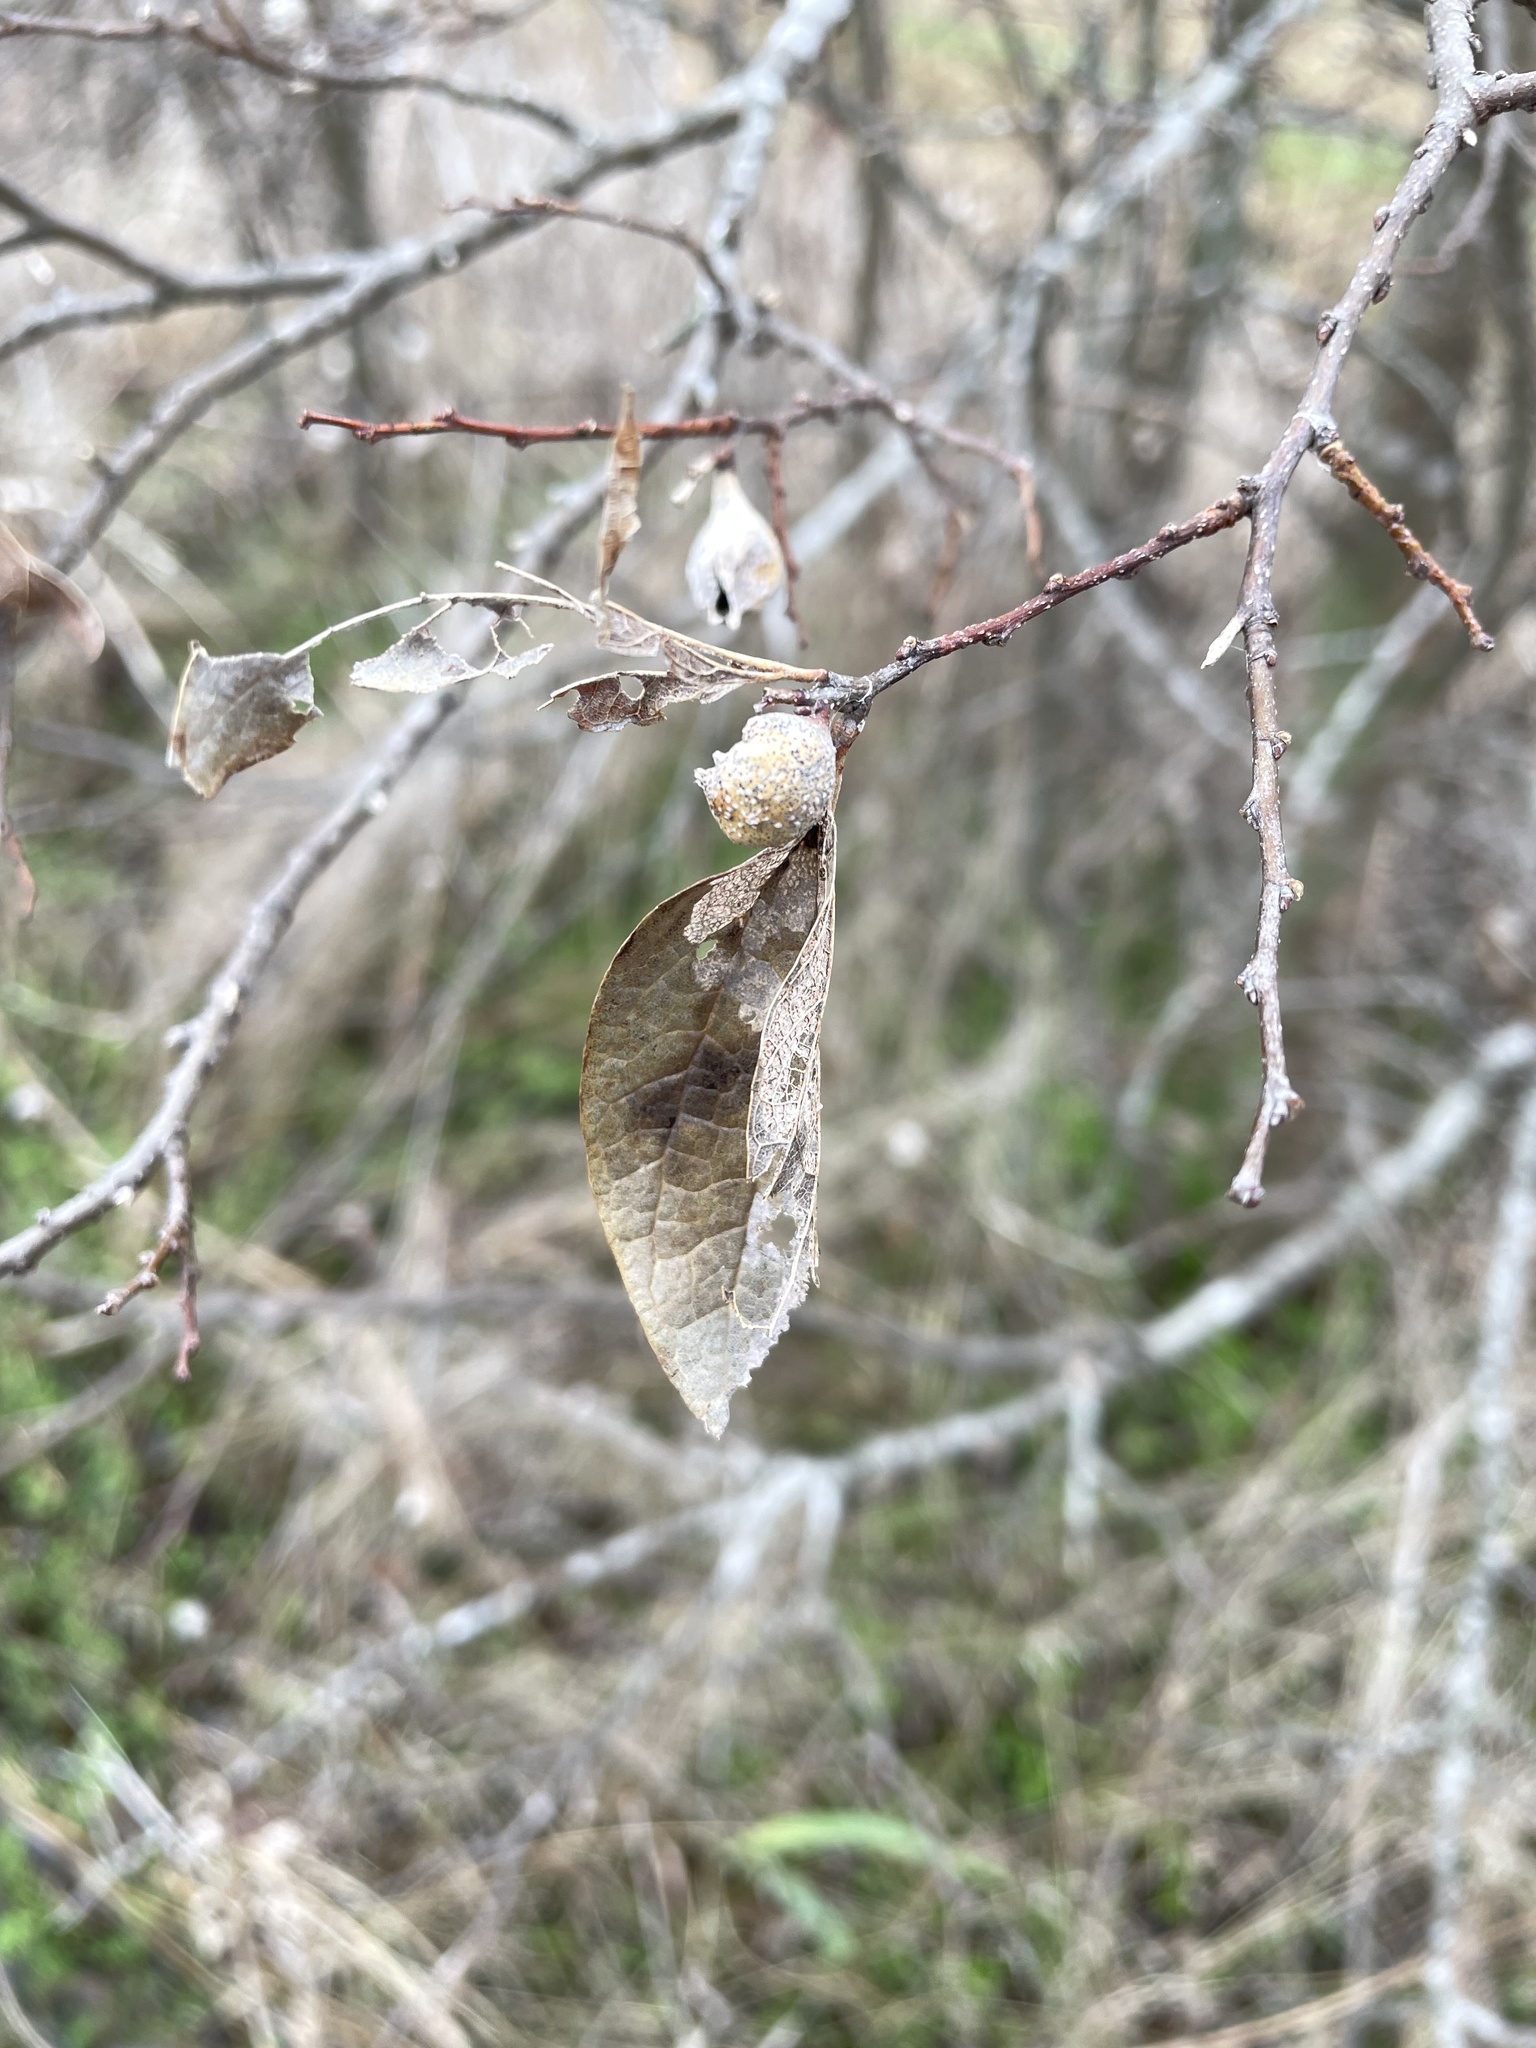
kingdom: Animalia
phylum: Arthropoda
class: Insecta
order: Hemiptera
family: Aphalaridae
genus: Pachypsylla
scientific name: Pachypsylla venusta
